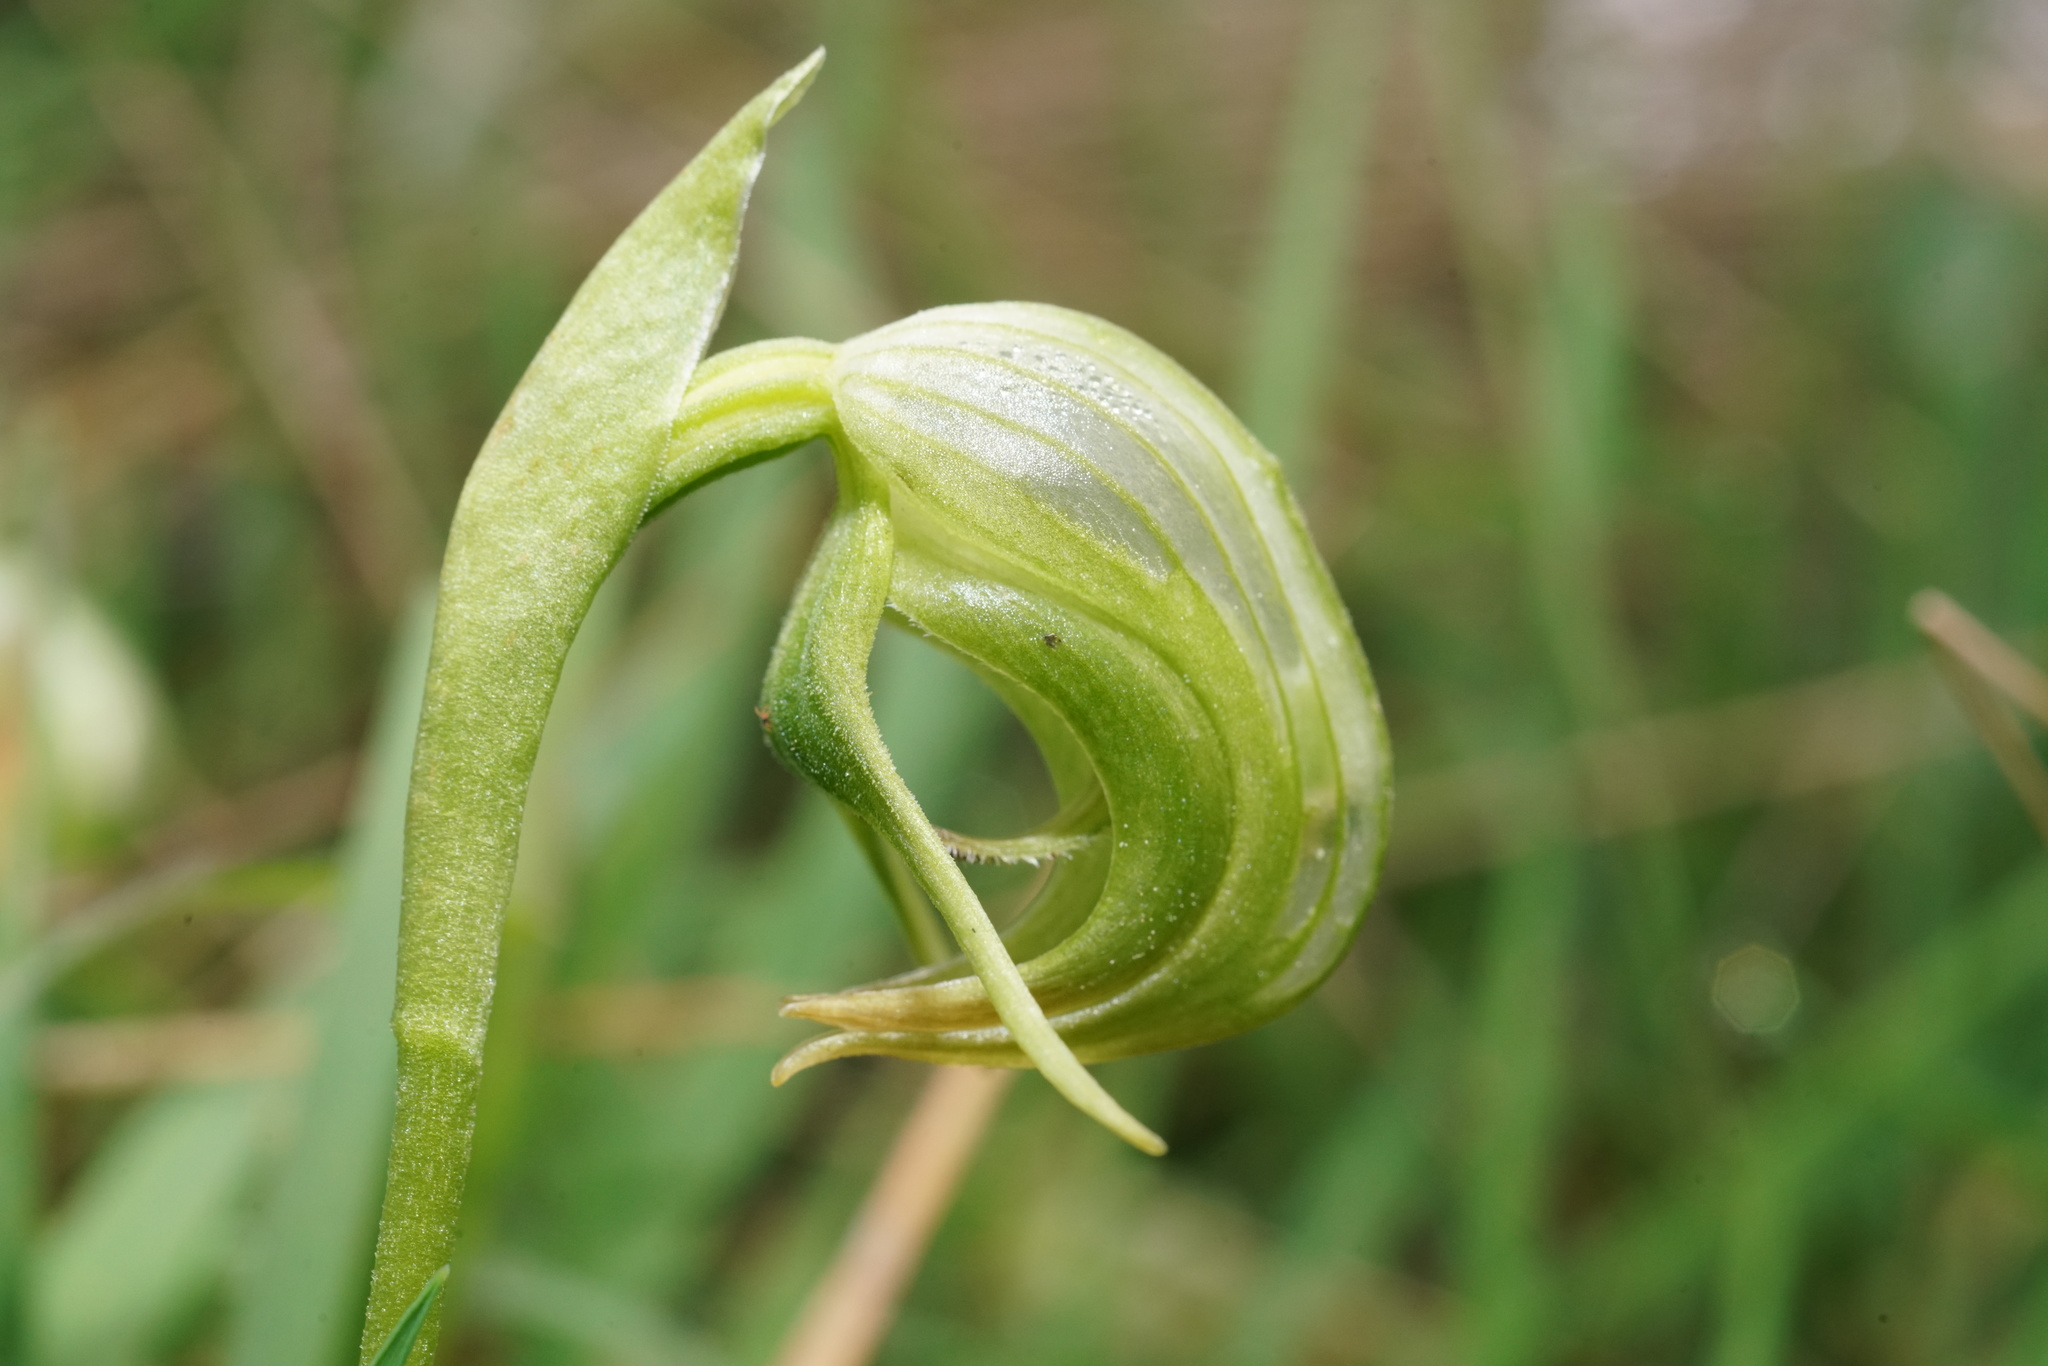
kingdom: Plantae
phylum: Tracheophyta
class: Liliopsida
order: Asparagales
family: Orchidaceae
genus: Pterostylis
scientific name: Pterostylis nutans
